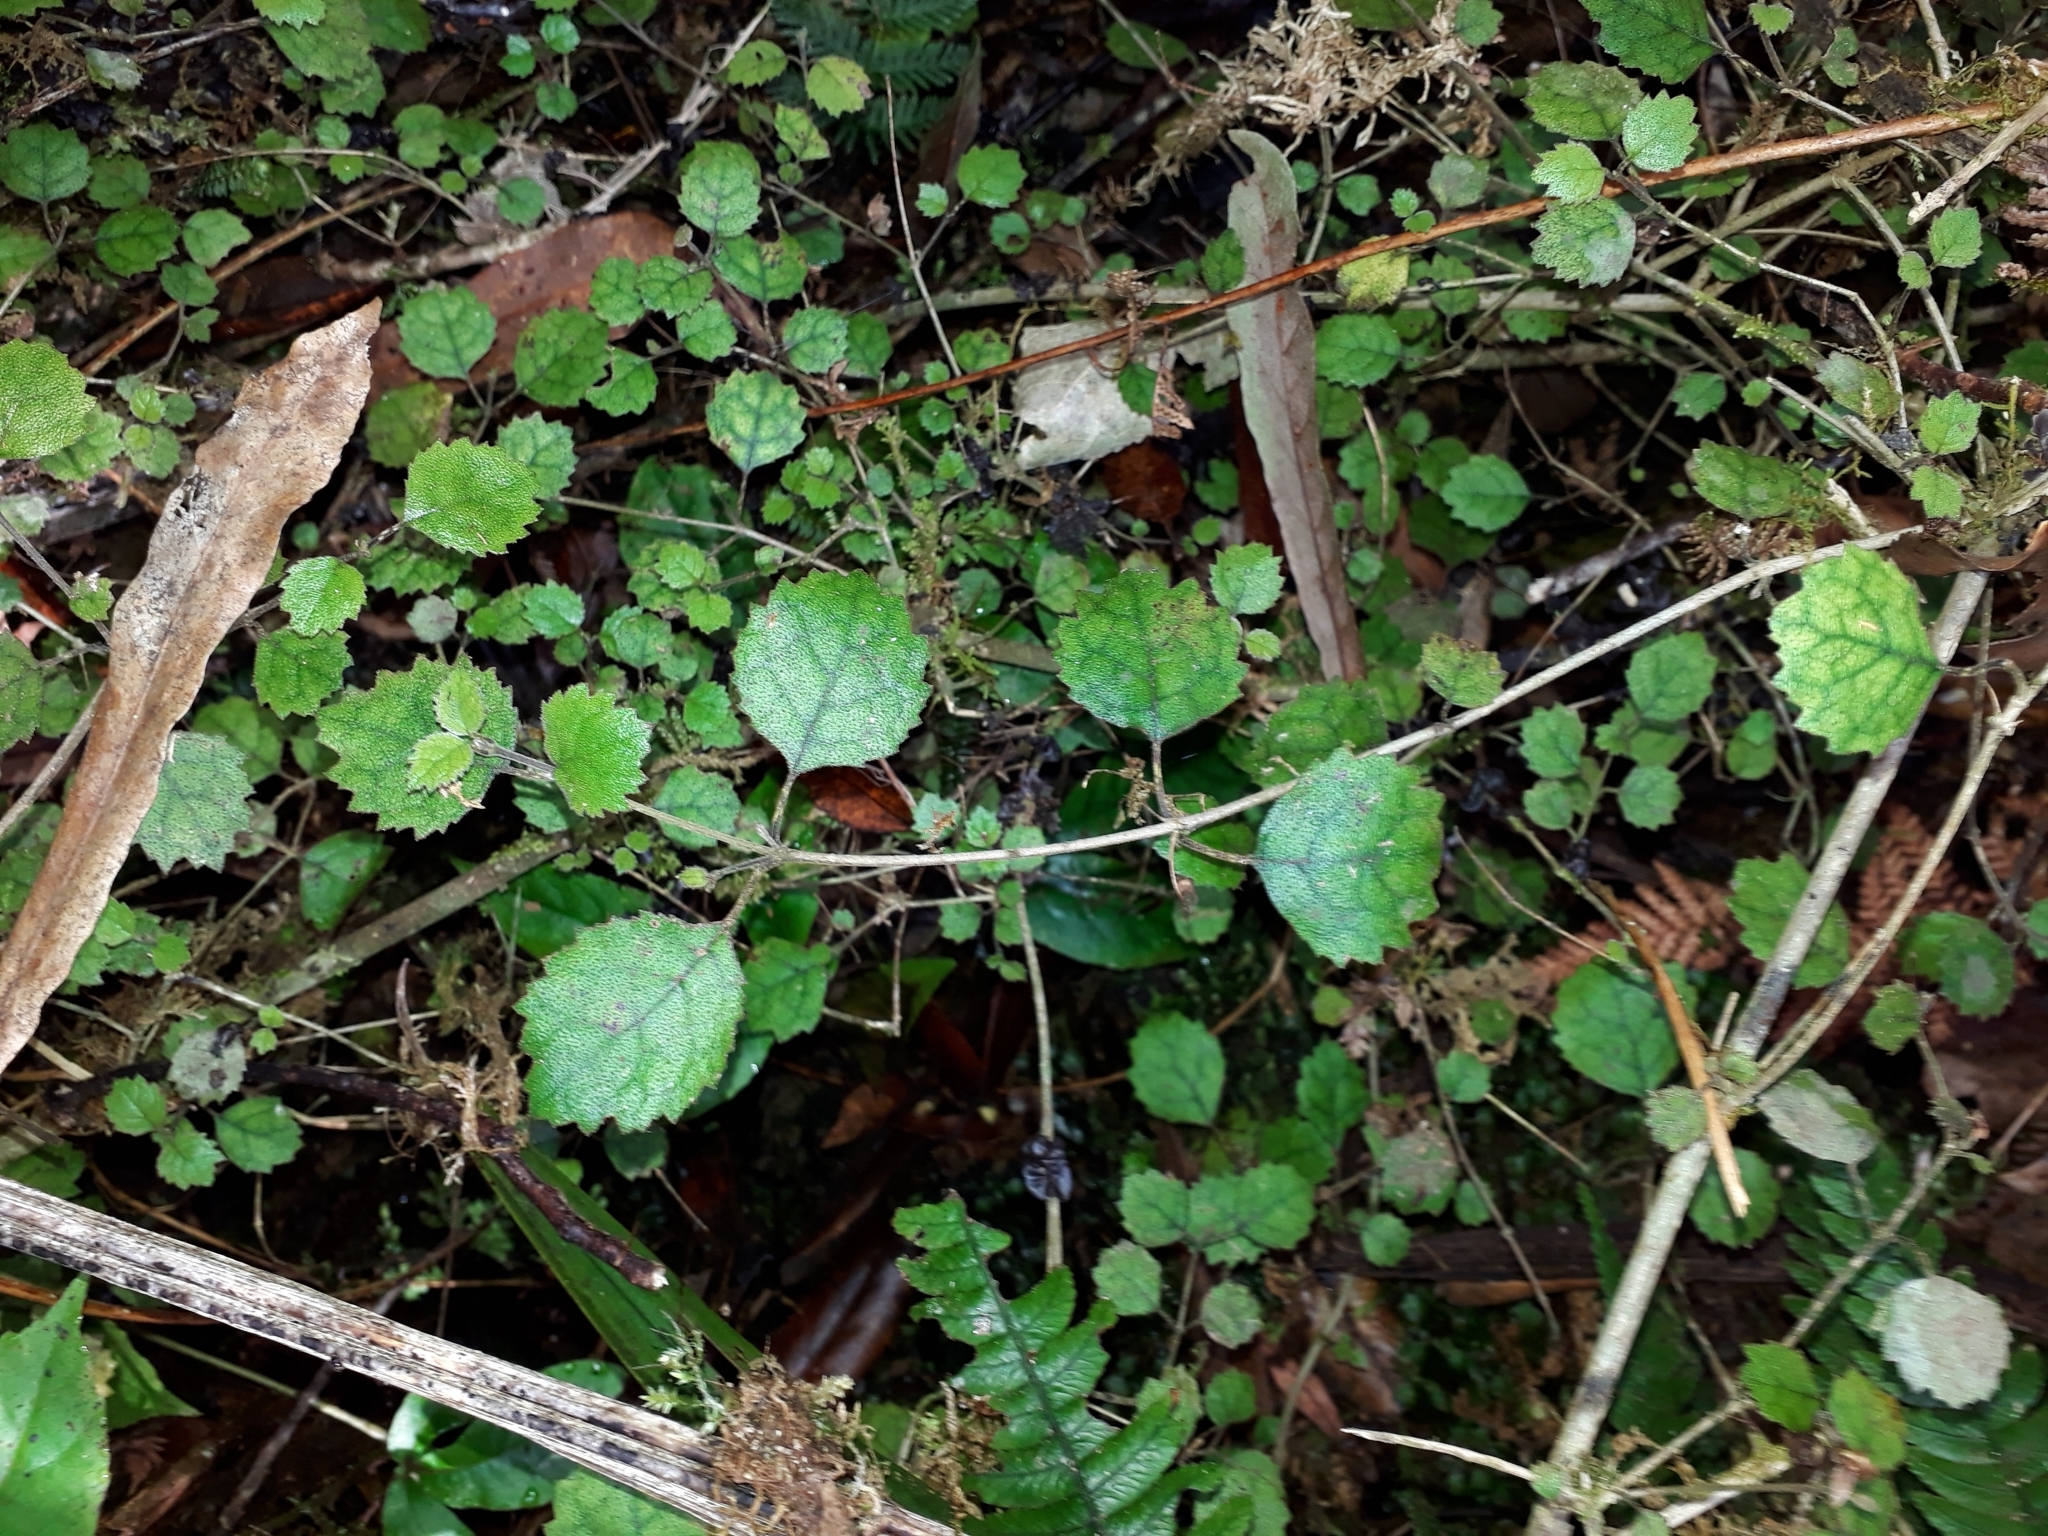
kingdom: Plantae
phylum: Tracheophyta
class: Magnoliopsida
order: Lamiales
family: Gesneriaceae
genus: Rhabdothamnus
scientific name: Rhabdothamnus solandri
